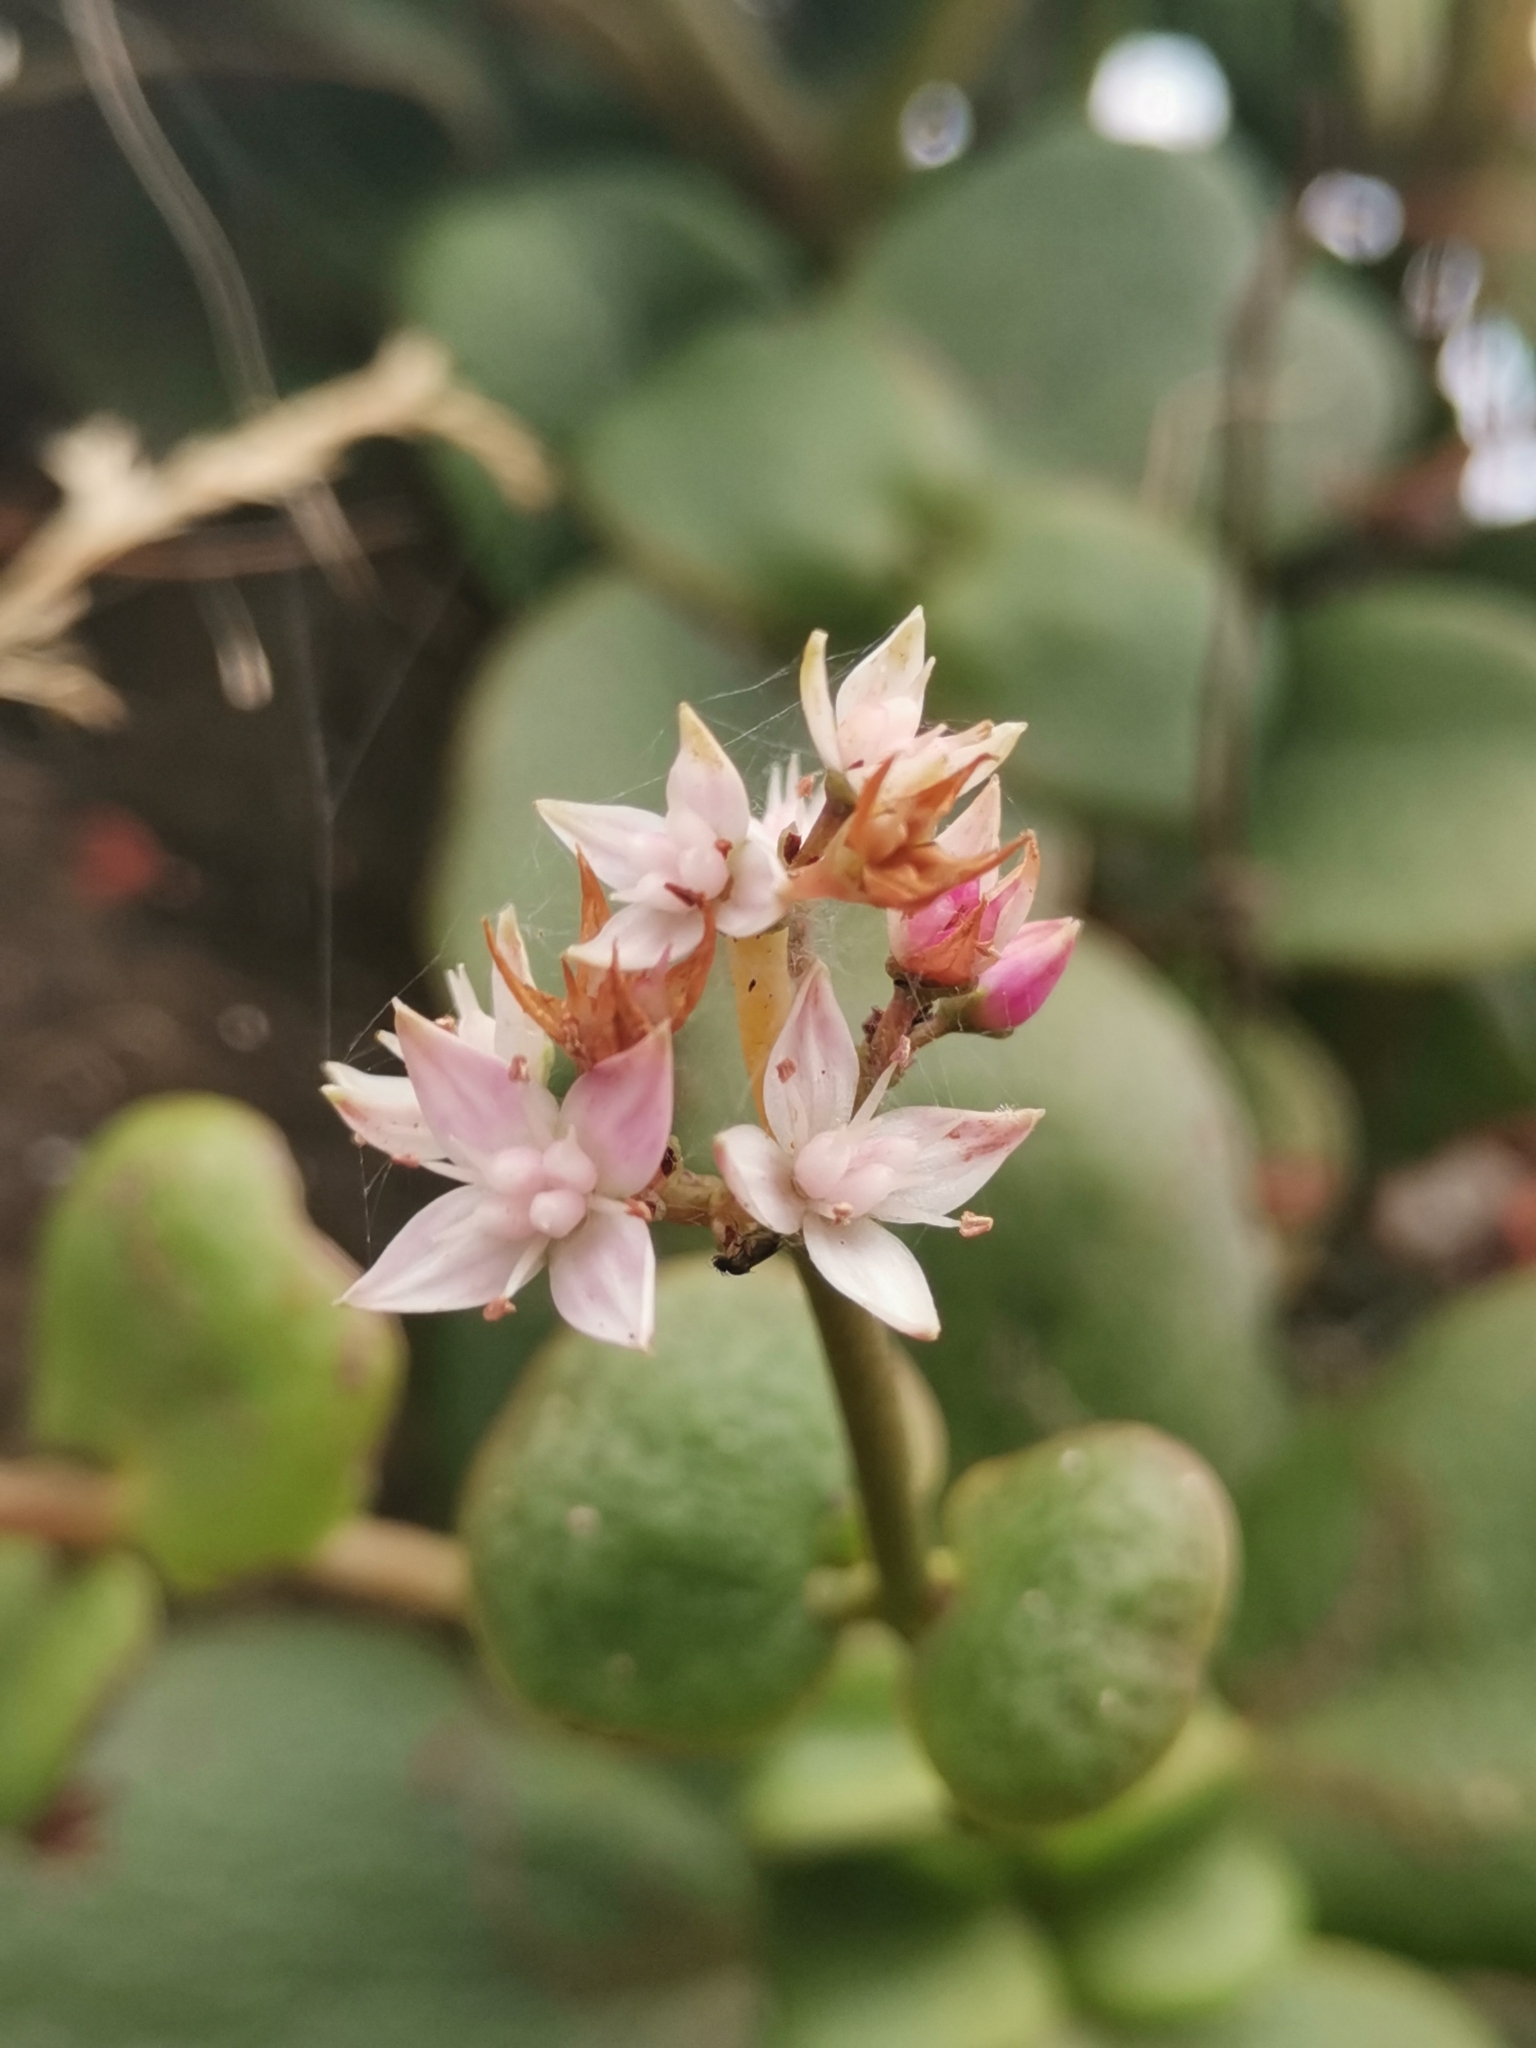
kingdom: Plantae
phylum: Tracheophyta
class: Magnoliopsida
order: Saxifragales
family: Crassulaceae
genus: Crassula
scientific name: Crassula multicava
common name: Cape province pygmyweed
